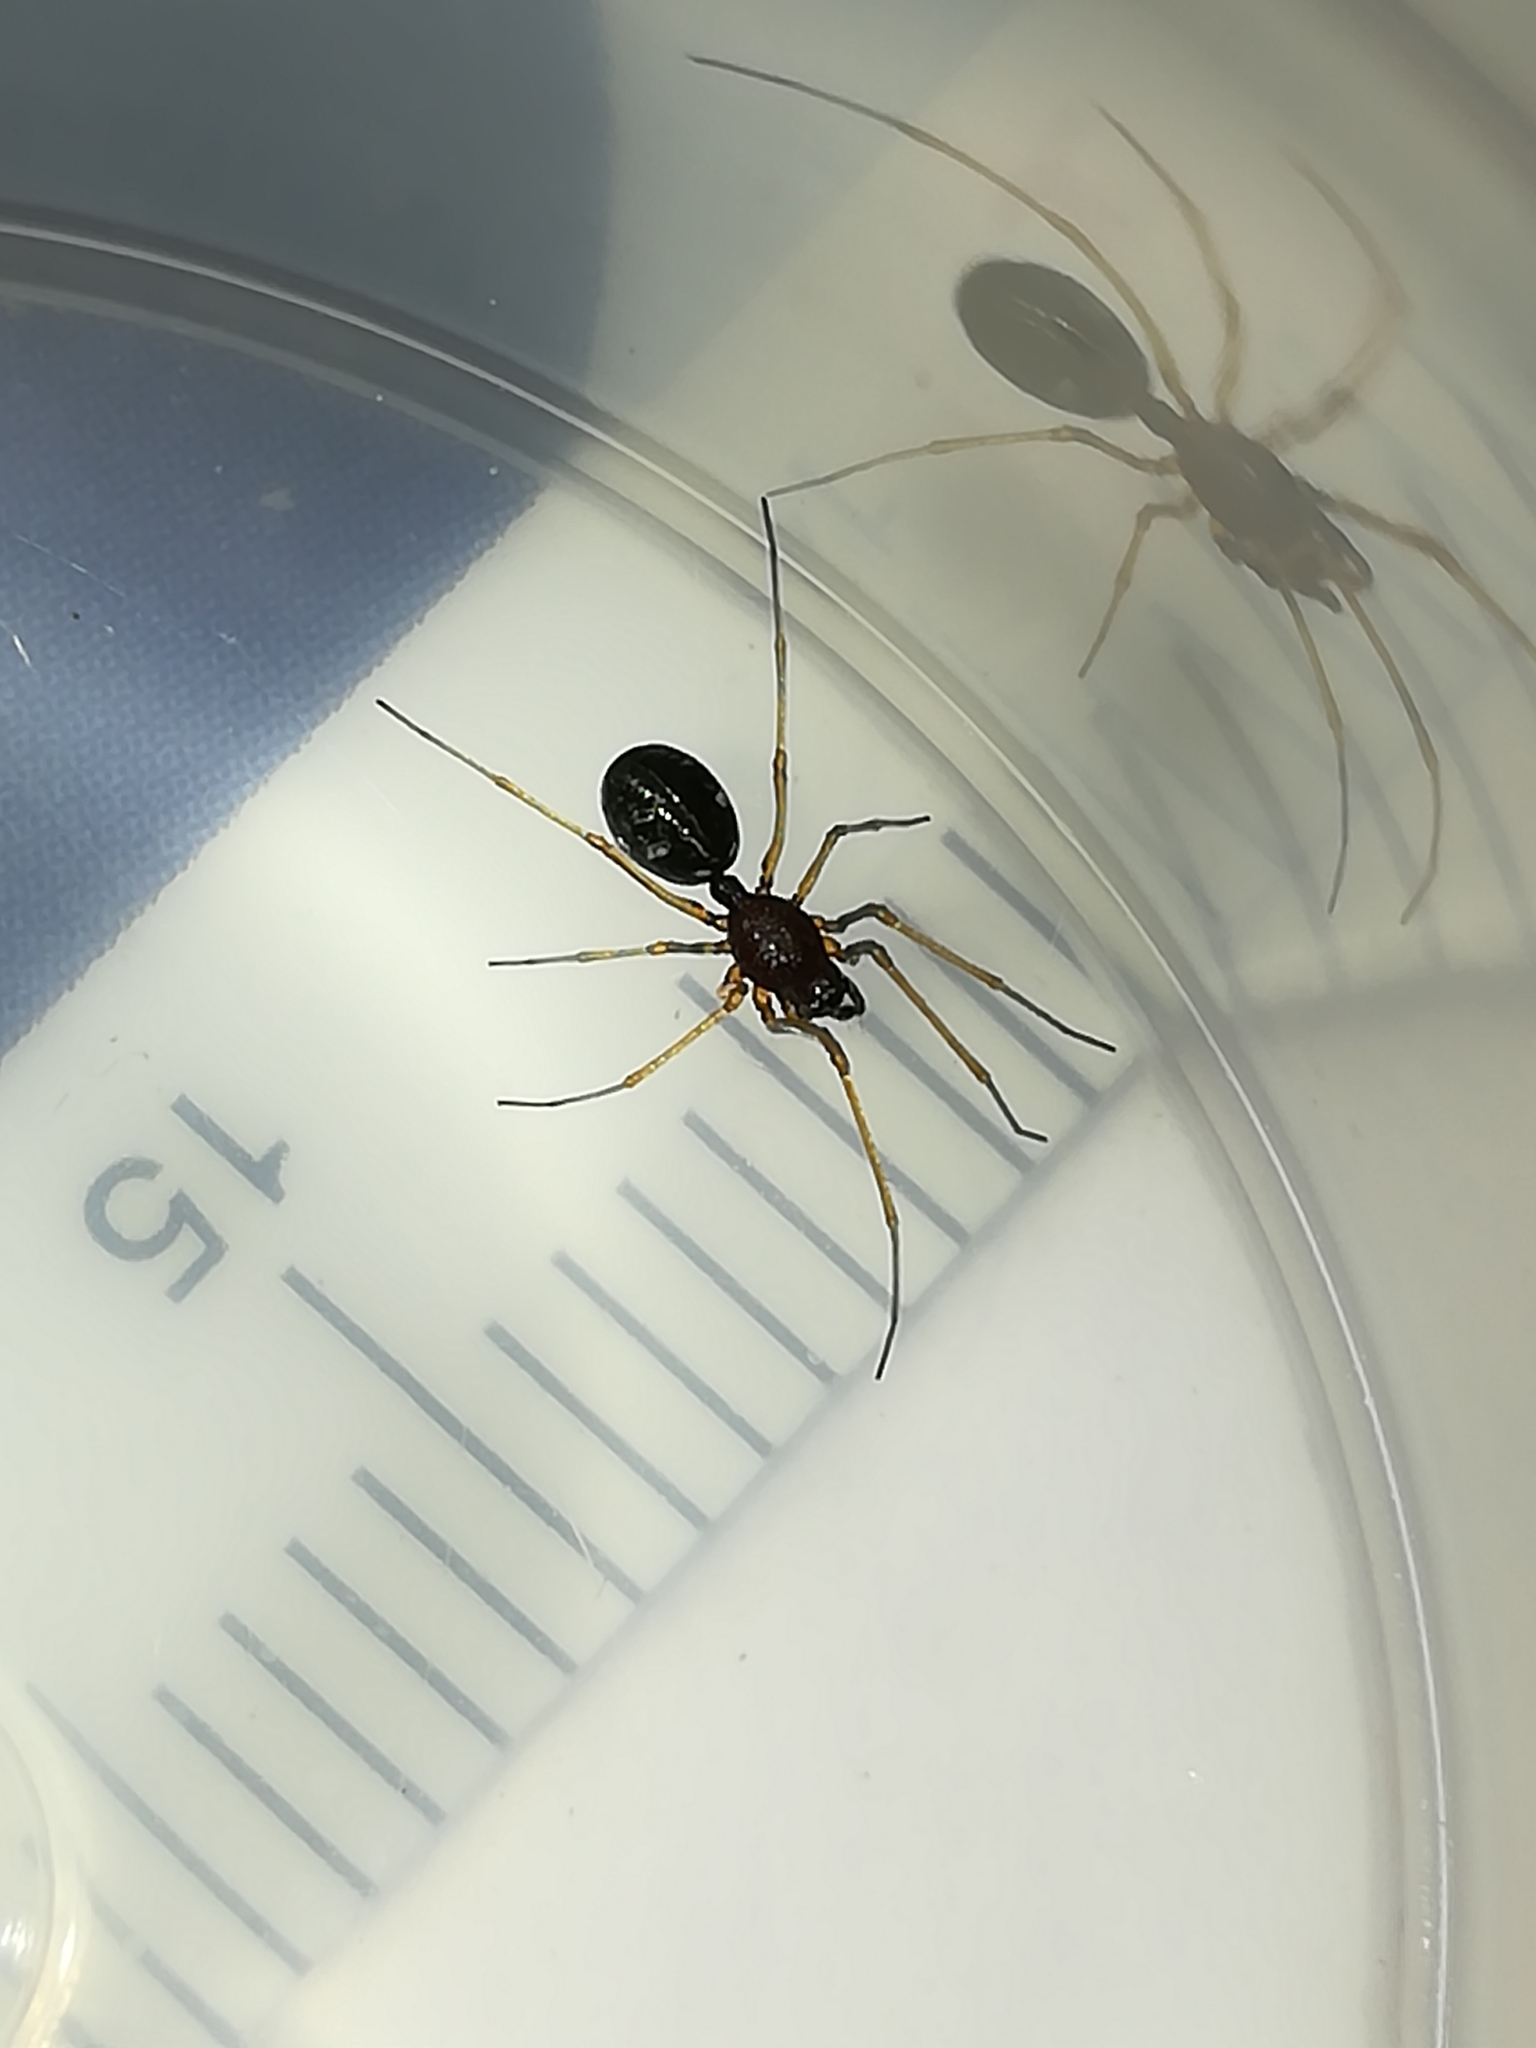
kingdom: Animalia
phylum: Arthropoda
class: Arachnida
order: Araneae
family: Linyphiidae
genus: Cresmatoneta
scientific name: Cresmatoneta mutinensis
